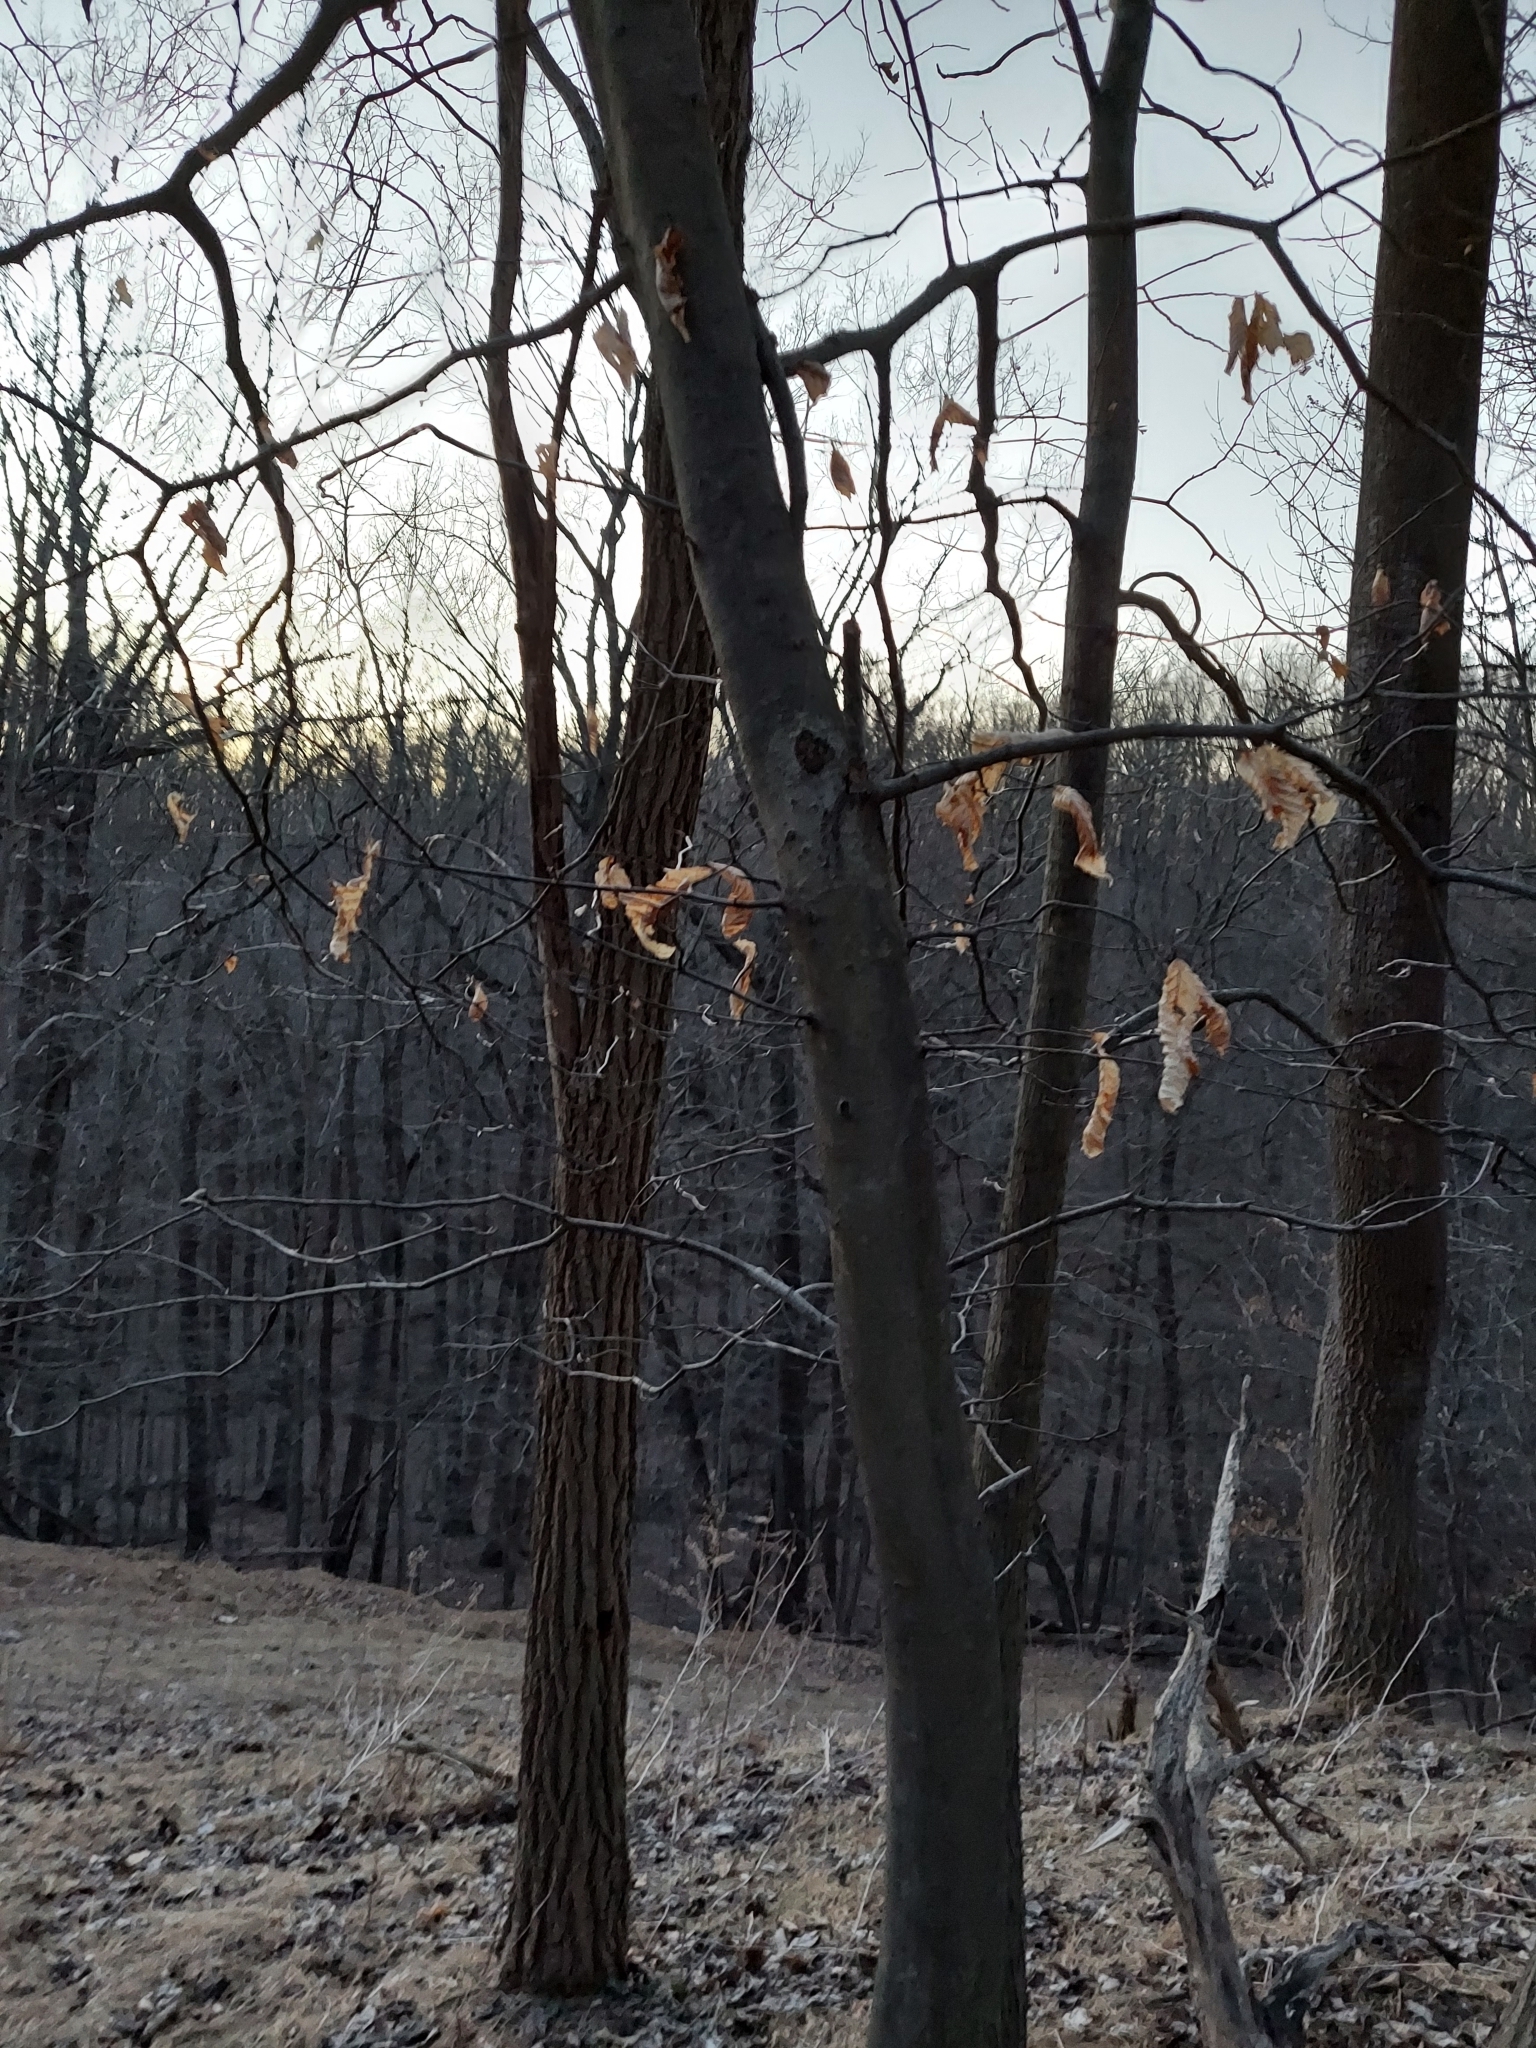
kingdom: Plantae
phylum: Tracheophyta
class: Magnoliopsida
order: Fagales
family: Fagaceae
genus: Fagus
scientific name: Fagus grandifolia
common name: American beech
